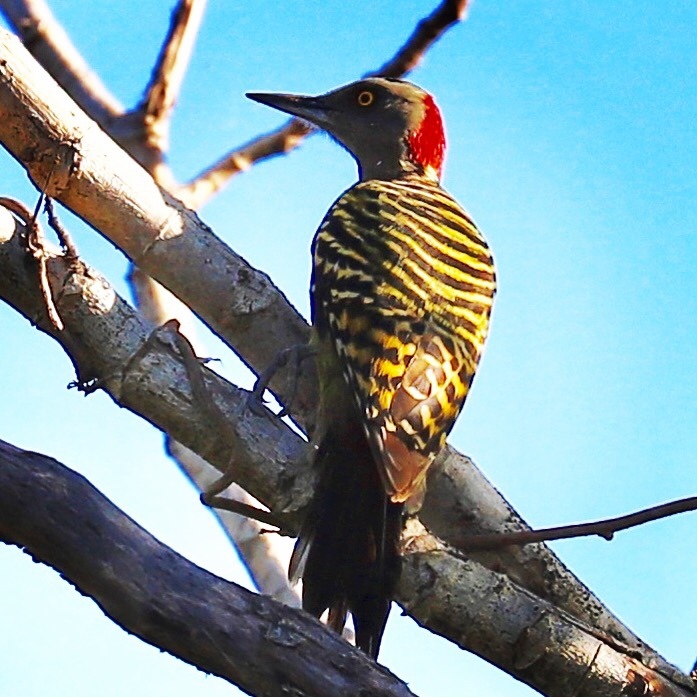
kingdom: Animalia
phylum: Chordata
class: Aves
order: Piciformes
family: Picidae
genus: Melanerpes
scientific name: Melanerpes striatus
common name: Hispaniolan woodpecker
